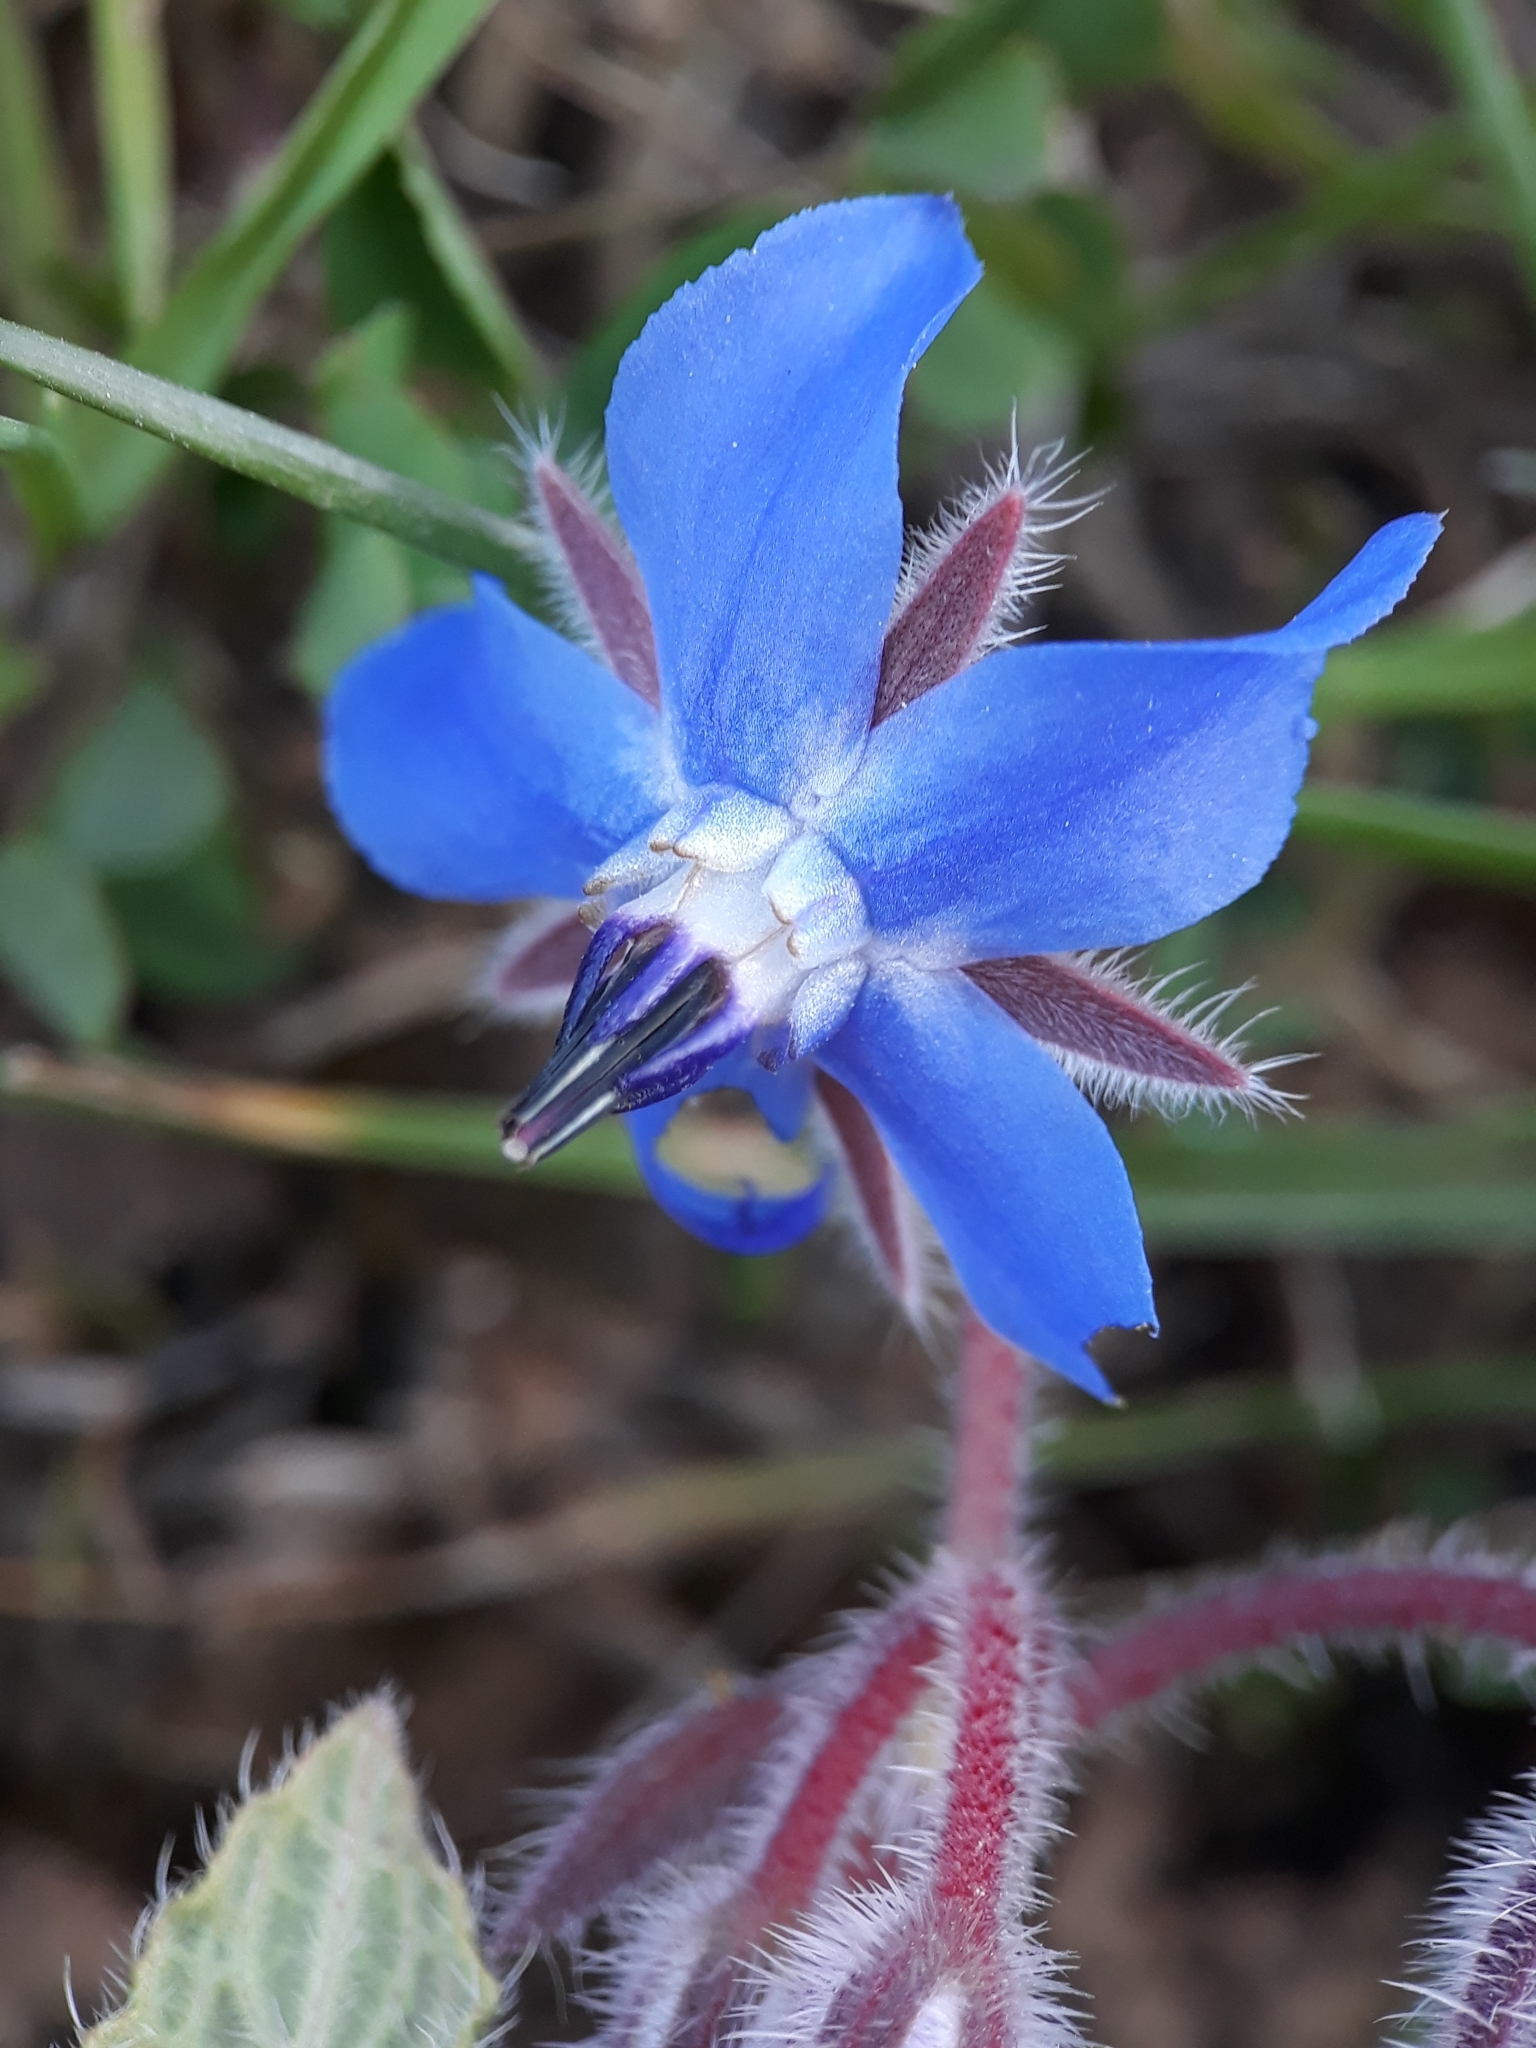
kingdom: Plantae
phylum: Tracheophyta
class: Magnoliopsida
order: Boraginales
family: Boraginaceae
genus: Borago
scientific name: Borago officinalis
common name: Borage
